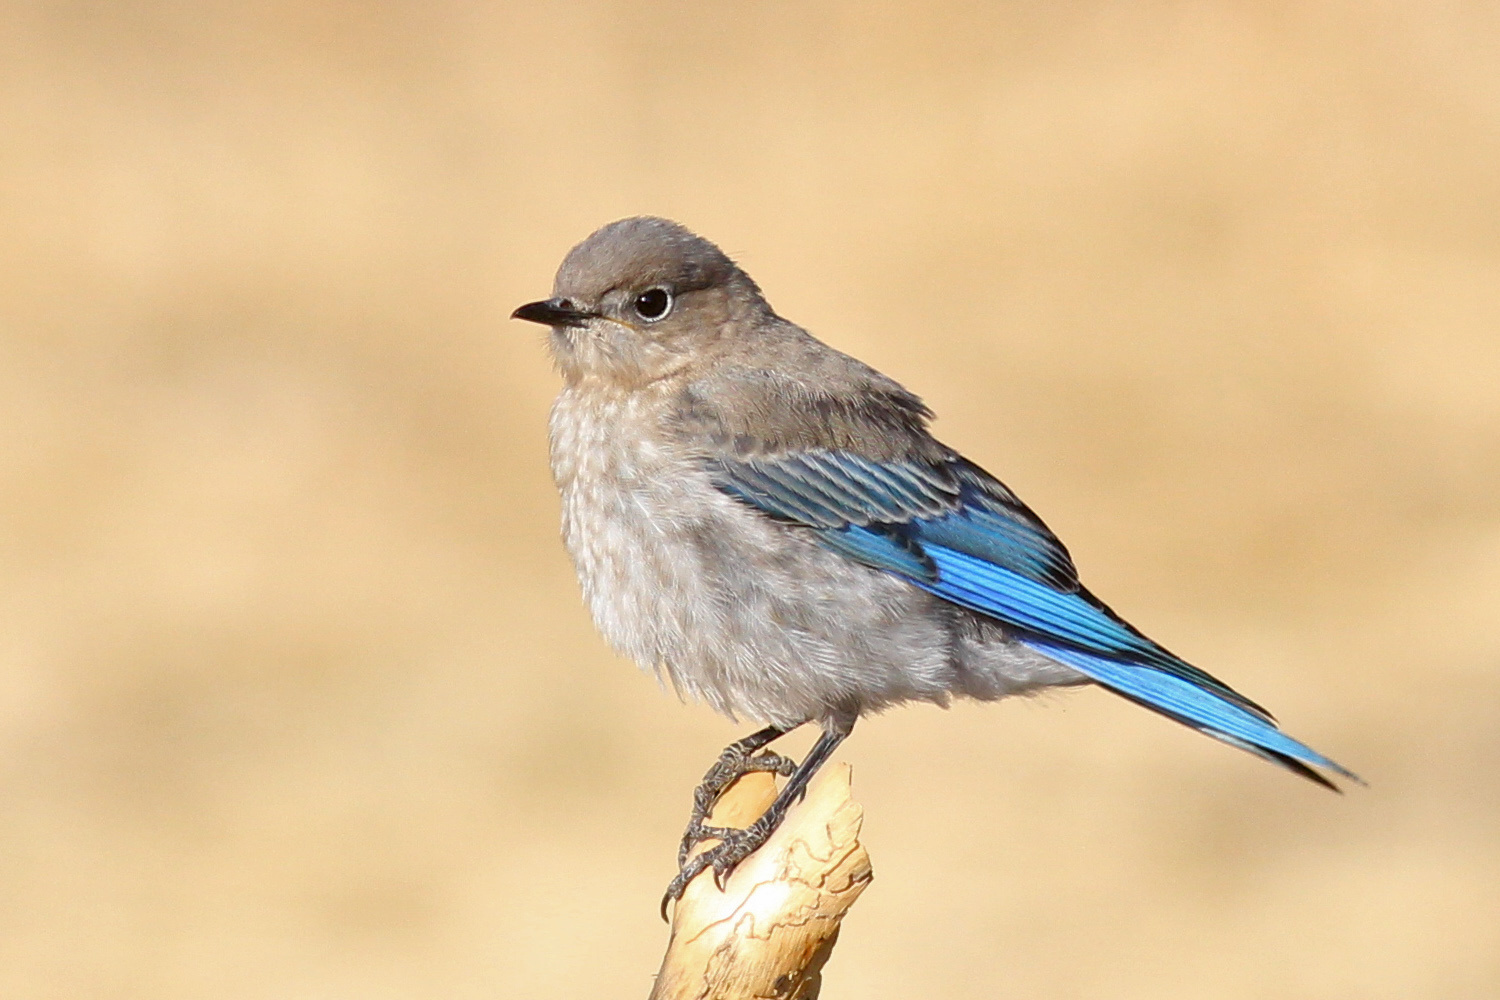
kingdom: Animalia
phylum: Chordata
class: Aves
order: Passeriformes
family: Turdidae
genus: Sialia
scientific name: Sialia currucoides
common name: Mountain bluebird
